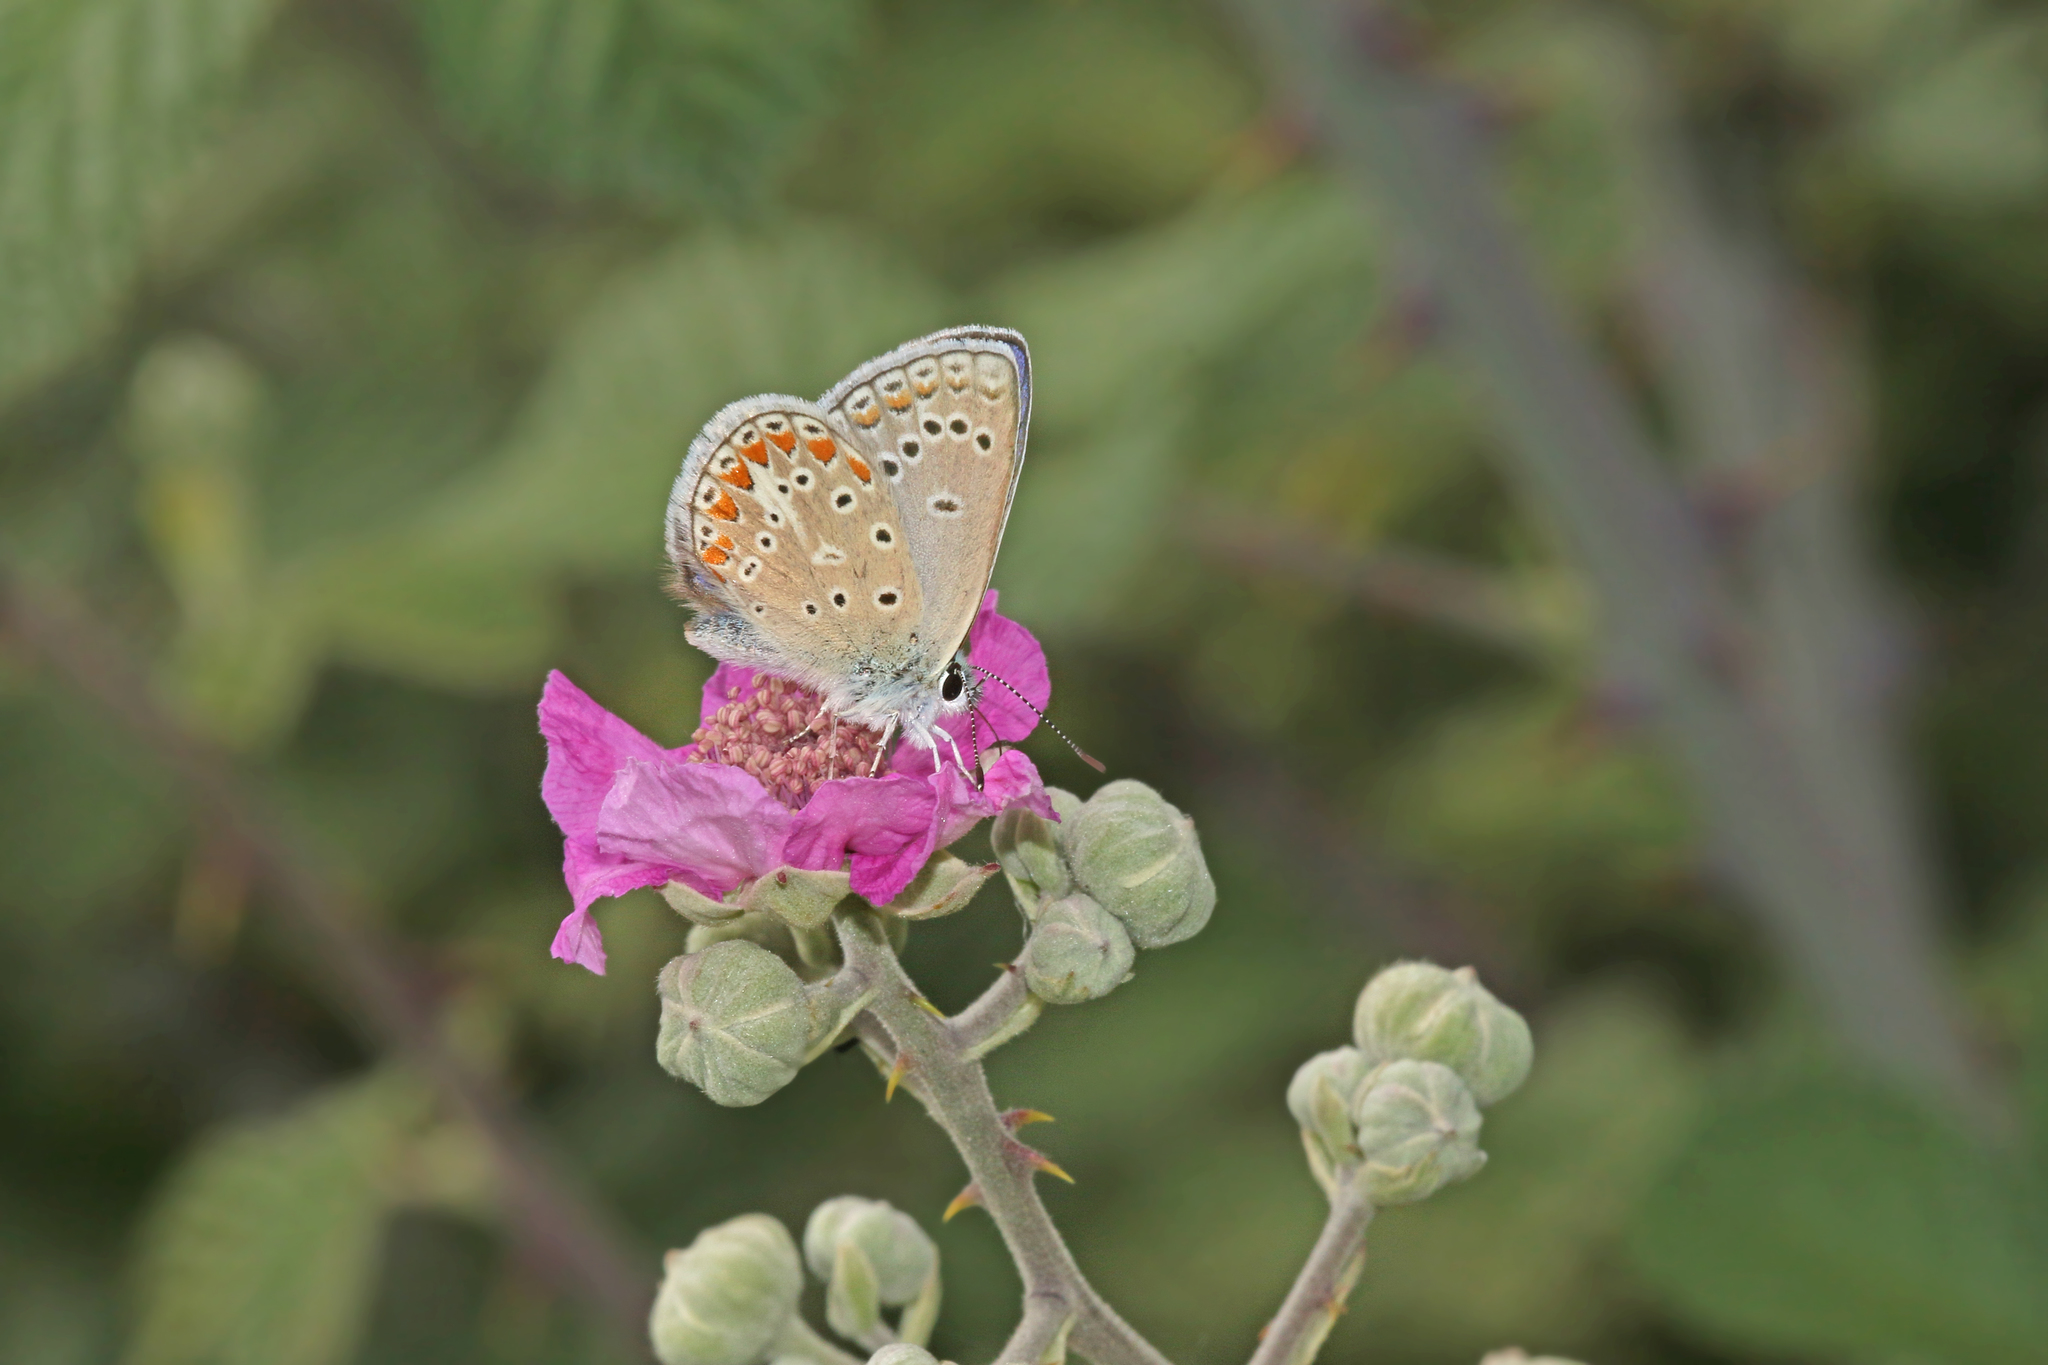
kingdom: Animalia
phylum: Arthropoda
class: Insecta
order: Lepidoptera
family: Lycaenidae
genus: Polyommatus
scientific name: Polyommatus thersites
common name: Chapman's blue
